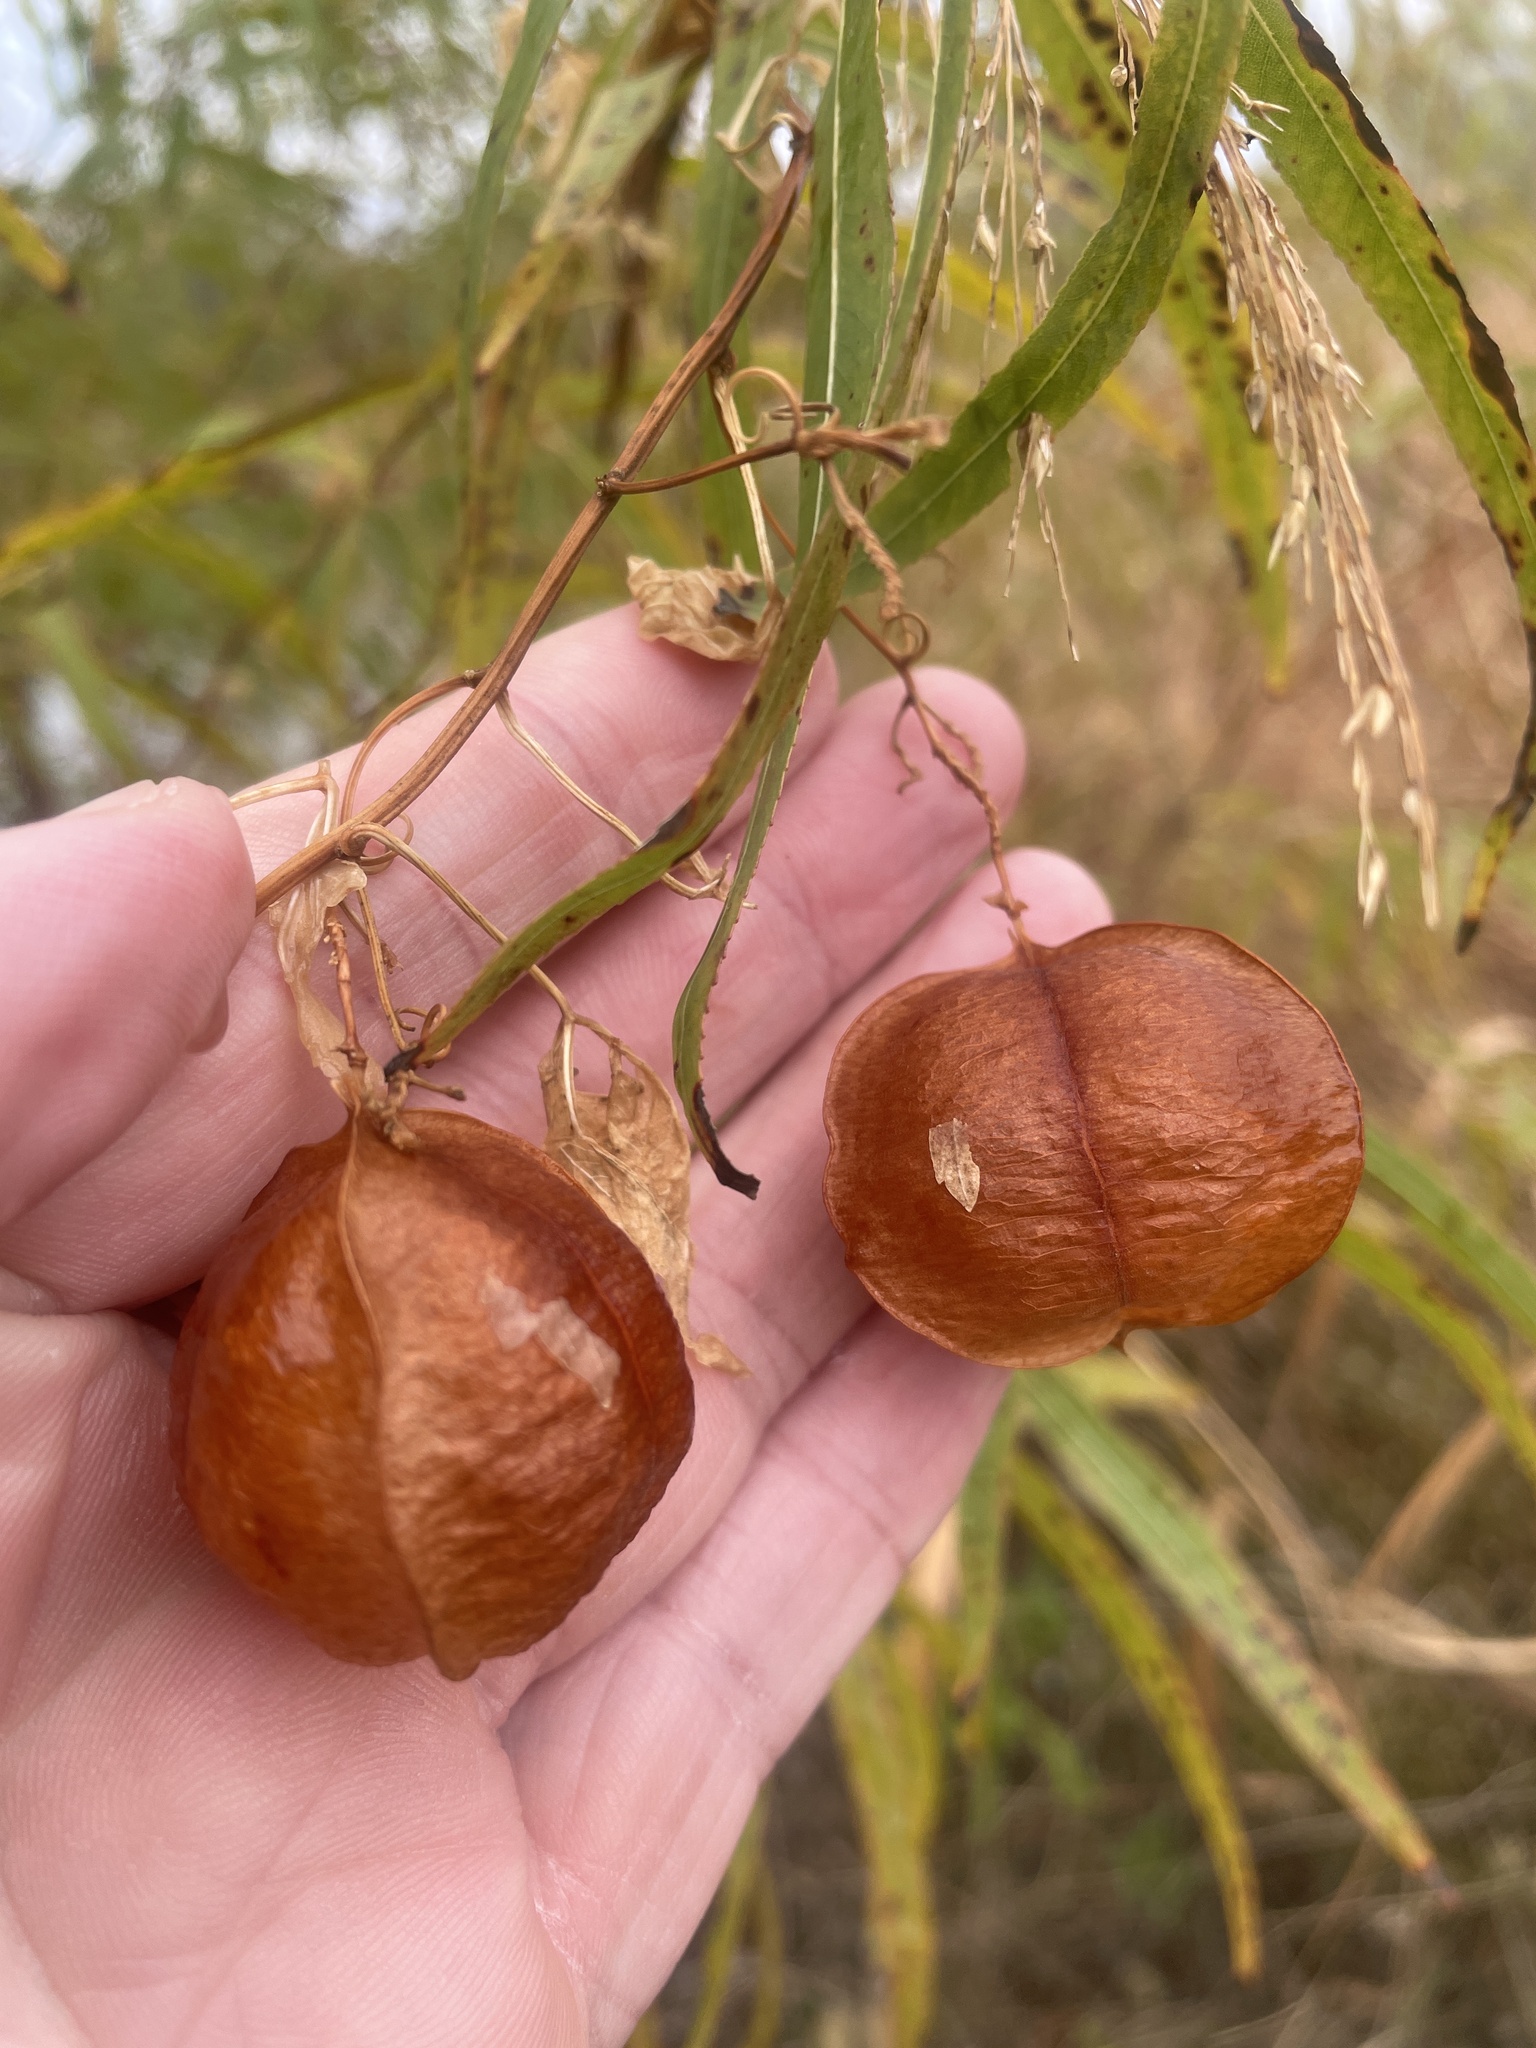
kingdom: Plantae
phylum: Tracheophyta
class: Magnoliopsida
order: Sapindales
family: Sapindaceae
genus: Cardiospermum
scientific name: Cardiospermum halicacabum
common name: Balloon vine
